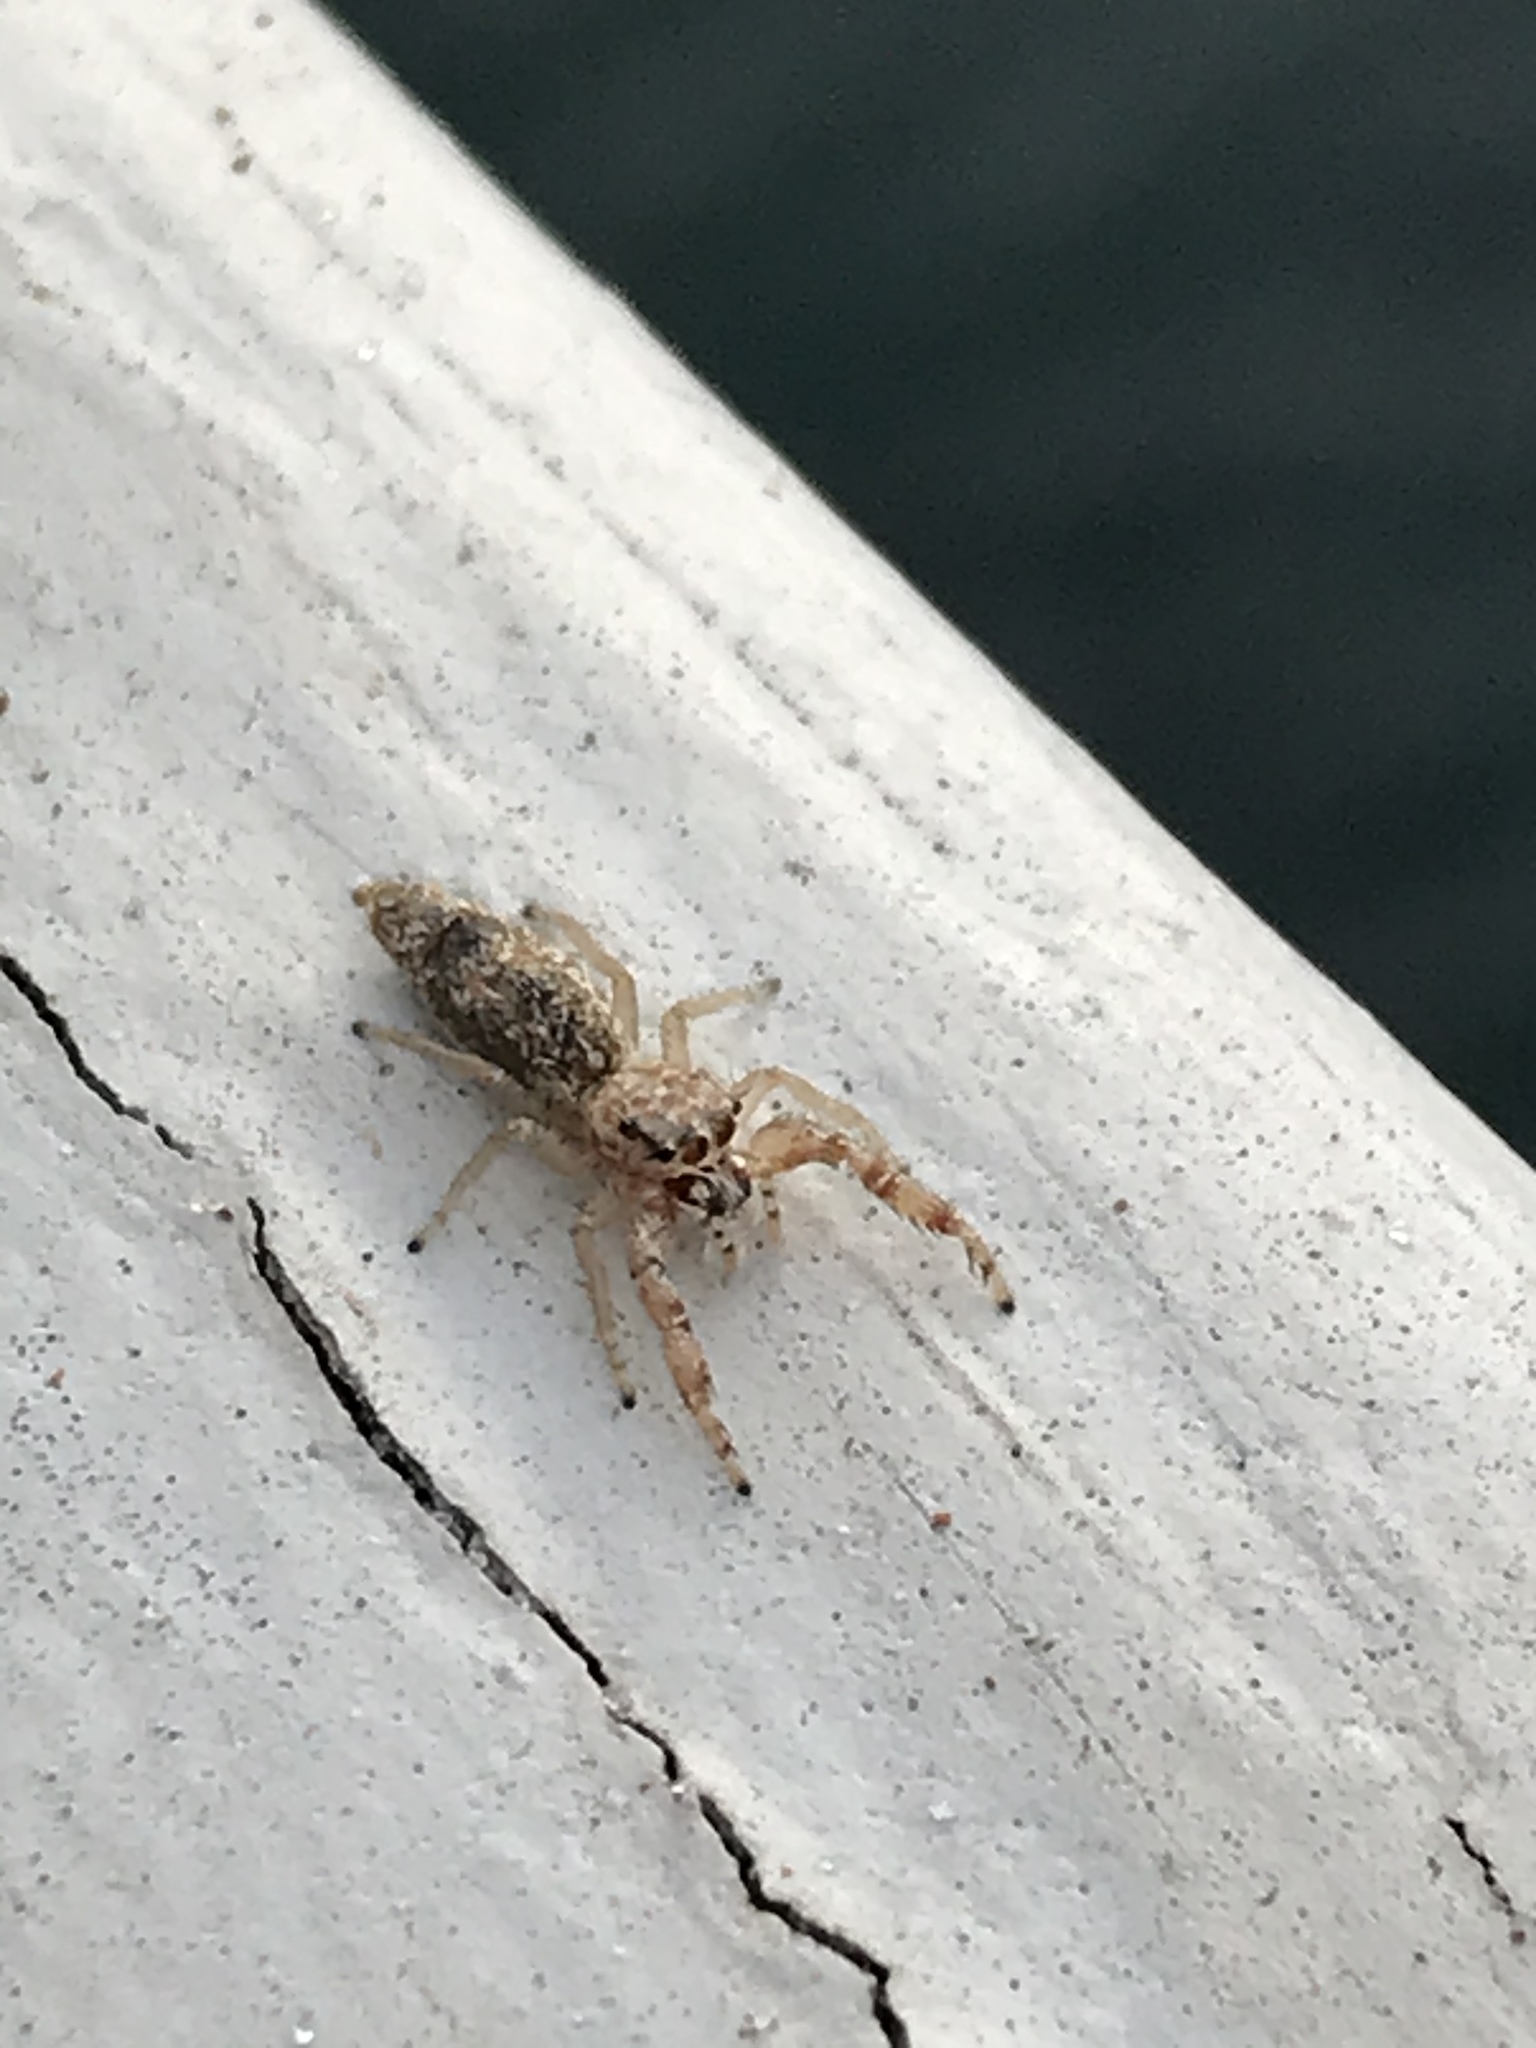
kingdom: Animalia
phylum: Arthropoda
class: Arachnida
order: Araneae
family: Salticidae
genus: Hentzia
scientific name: Hentzia grenada
